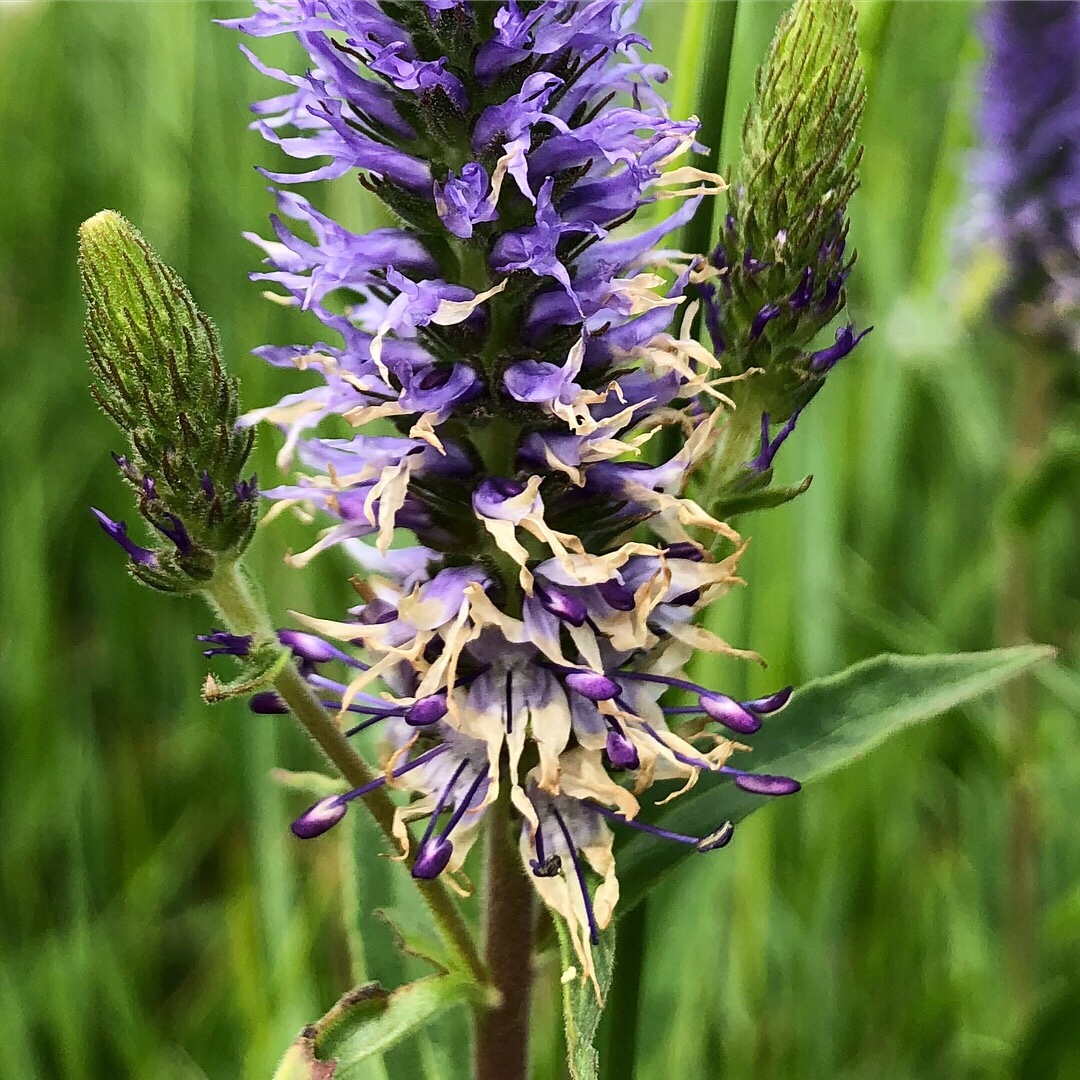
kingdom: Plantae
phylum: Tracheophyta
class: Magnoliopsida
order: Lamiales
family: Plantaginaceae
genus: Veronica
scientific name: Veronica orchidea
